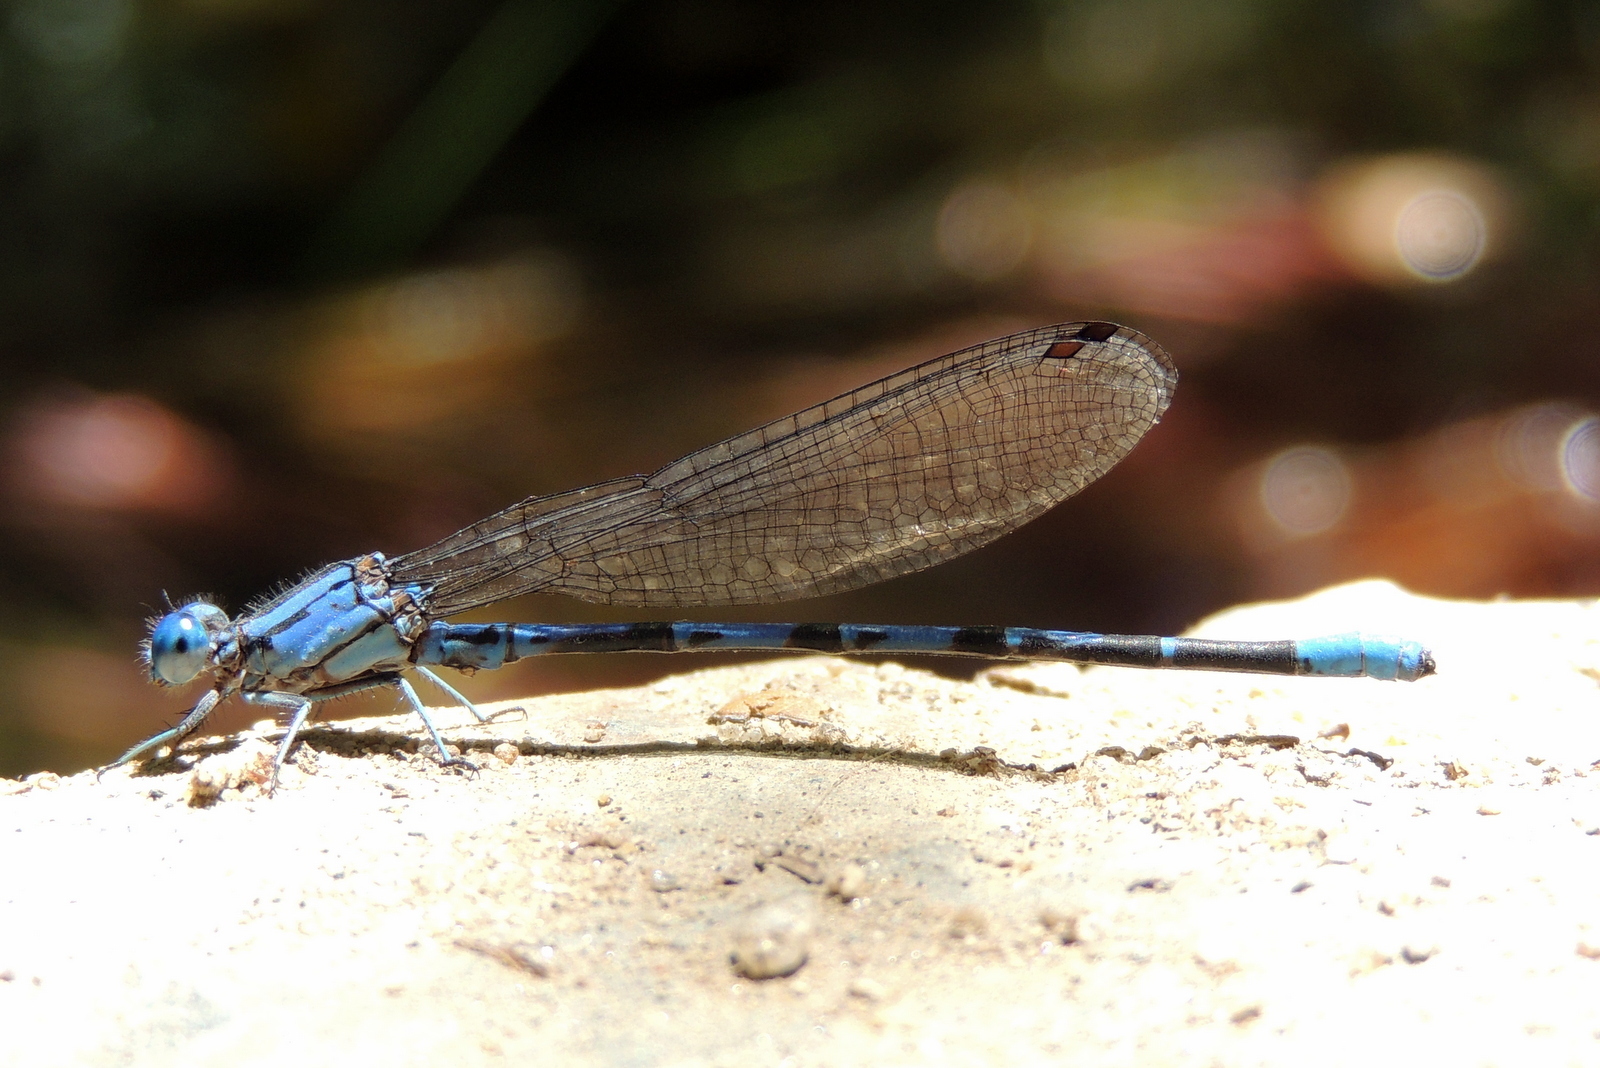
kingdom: Animalia
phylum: Arthropoda
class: Insecta
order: Odonata
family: Coenagrionidae
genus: Argia
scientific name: Argia vivida
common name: Vivid dancer
